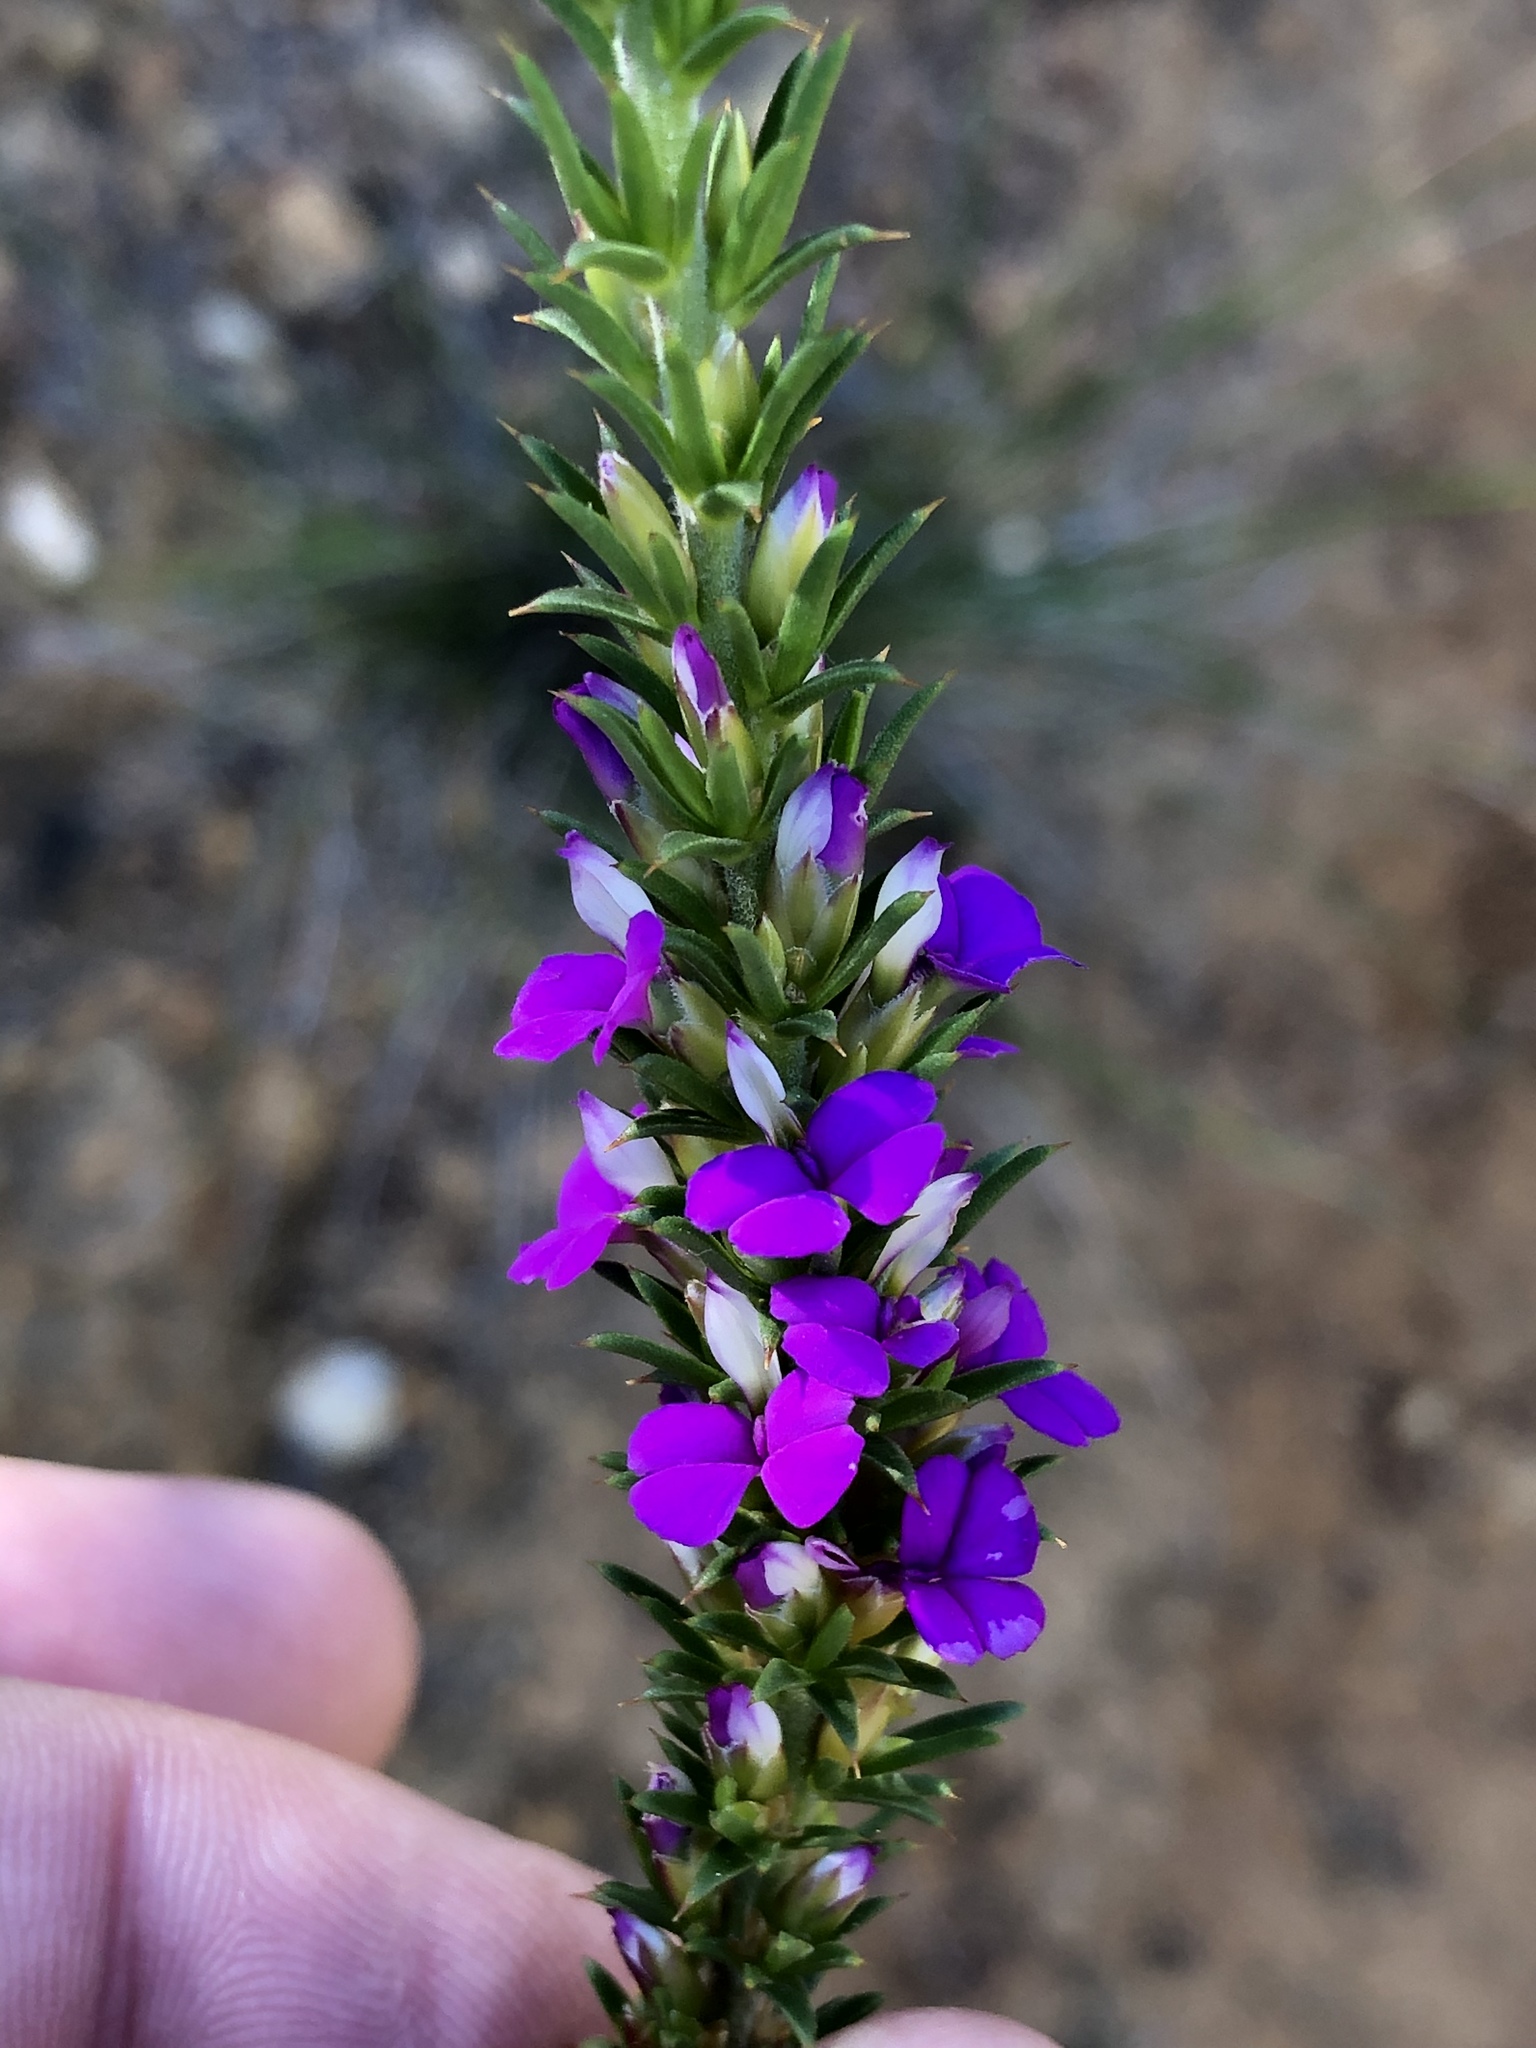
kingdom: Plantae
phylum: Tracheophyta
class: Magnoliopsida
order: Fabales
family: Polygalaceae
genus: Muraltia
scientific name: Muraltia heisteria
